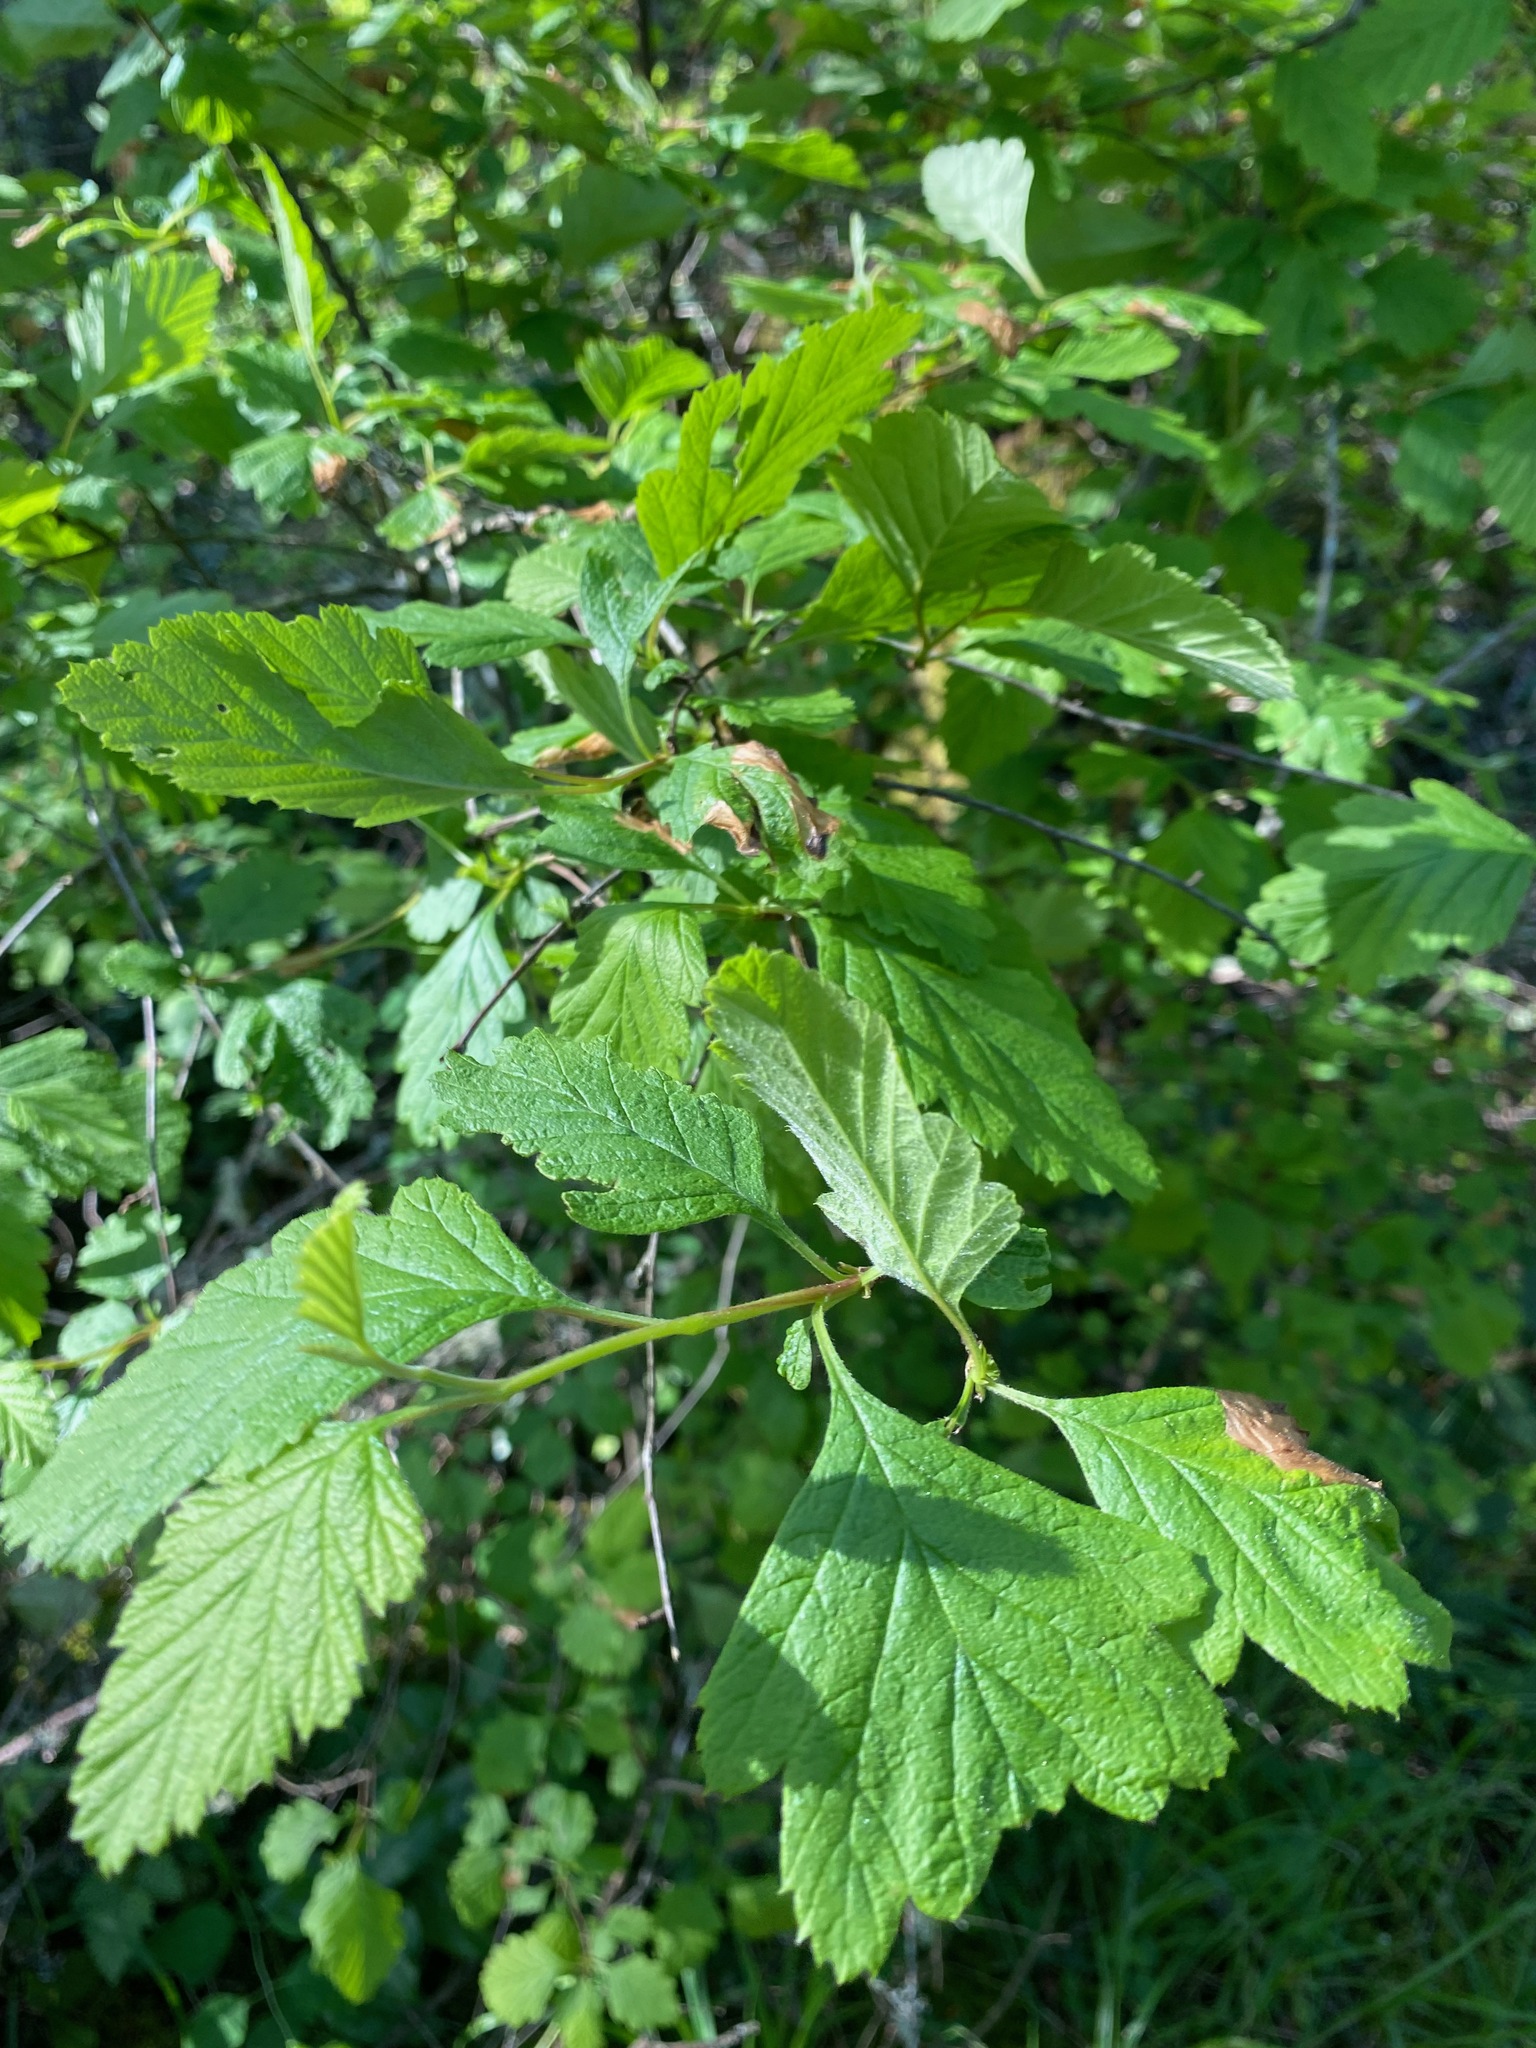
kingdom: Plantae
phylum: Tracheophyta
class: Magnoliopsida
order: Rosales
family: Rosaceae
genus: Holodiscus
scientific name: Holodiscus discolor
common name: Oceanspray
